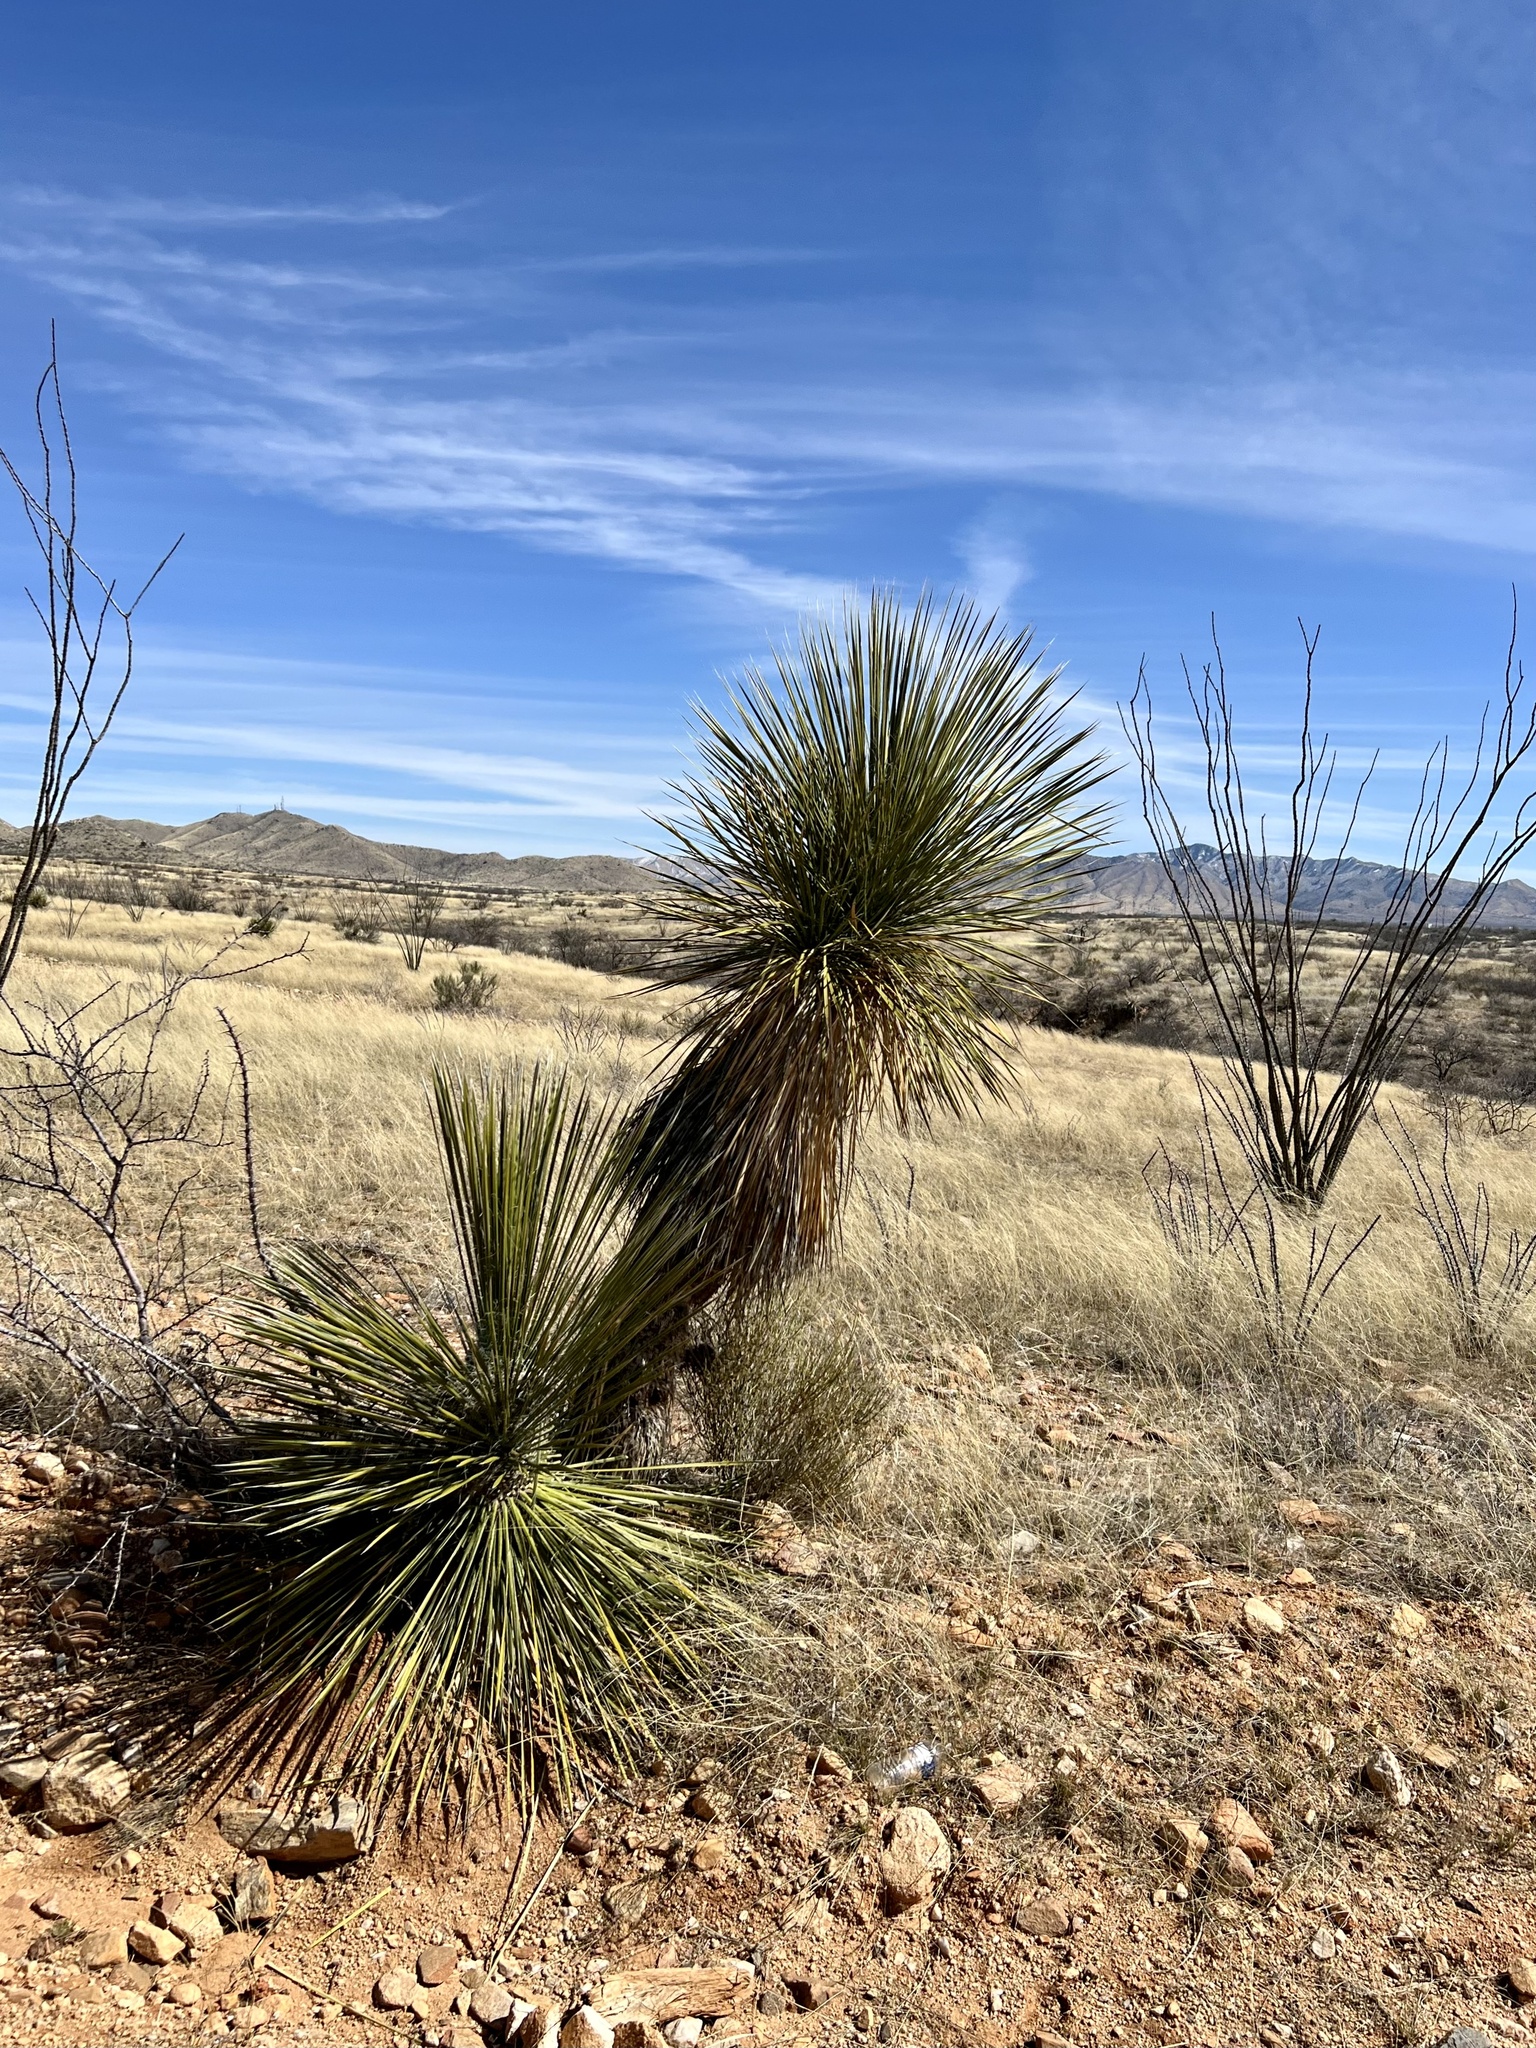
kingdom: Plantae
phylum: Tracheophyta
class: Liliopsida
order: Asparagales
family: Asparagaceae
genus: Yucca
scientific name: Yucca elata
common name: Palmella
